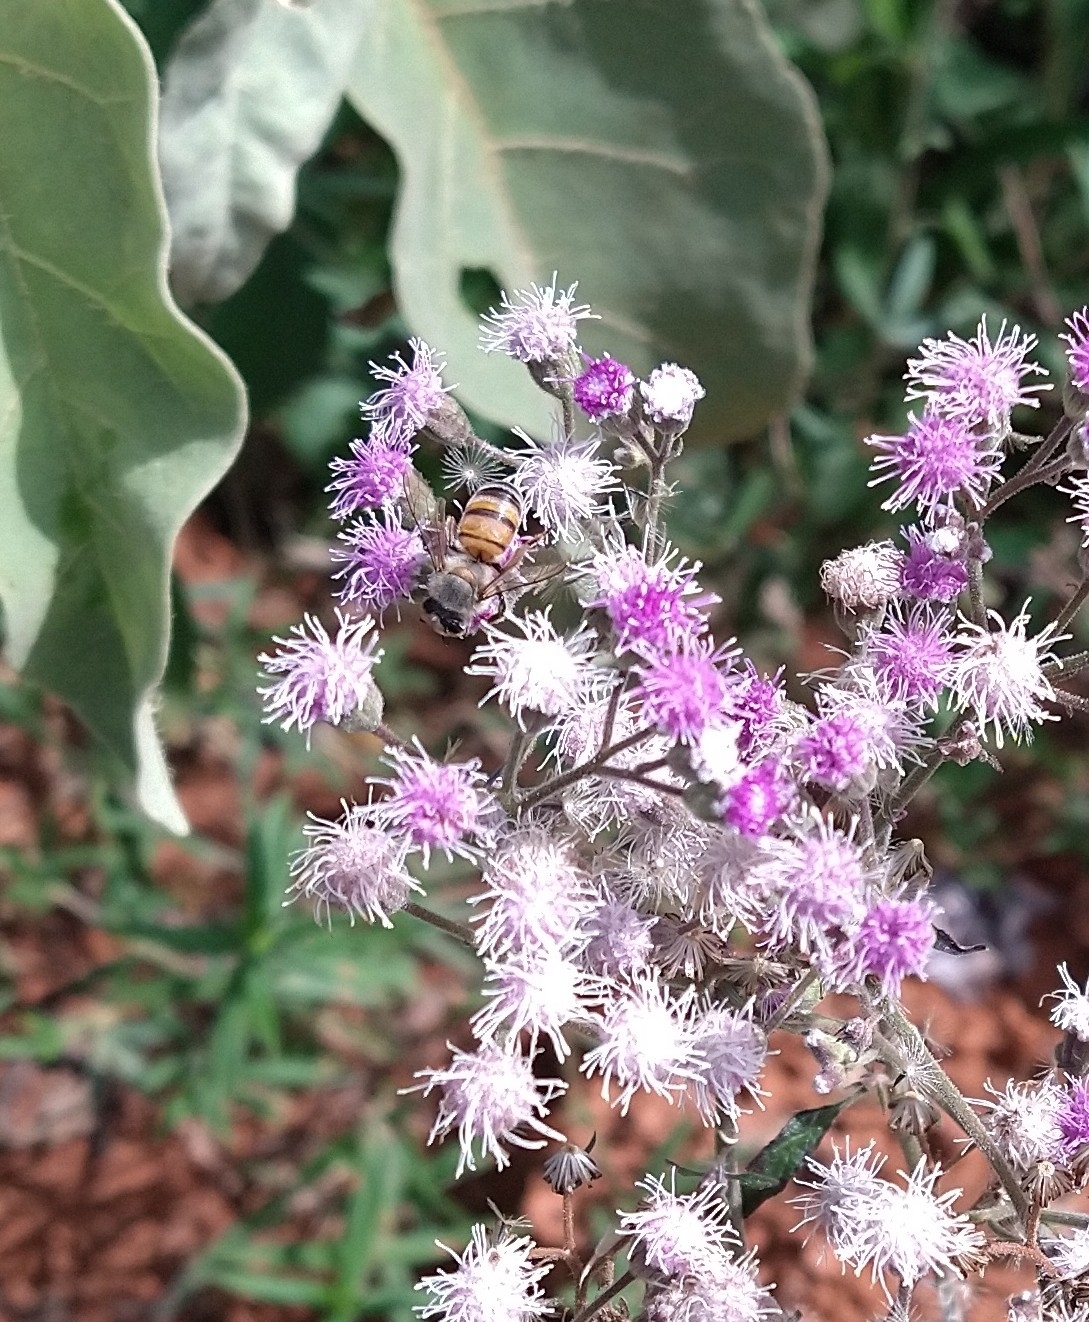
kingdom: Animalia
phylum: Arthropoda
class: Insecta
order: Hymenoptera
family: Apidae
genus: Apis
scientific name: Apis mellifera
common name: Honey bee
